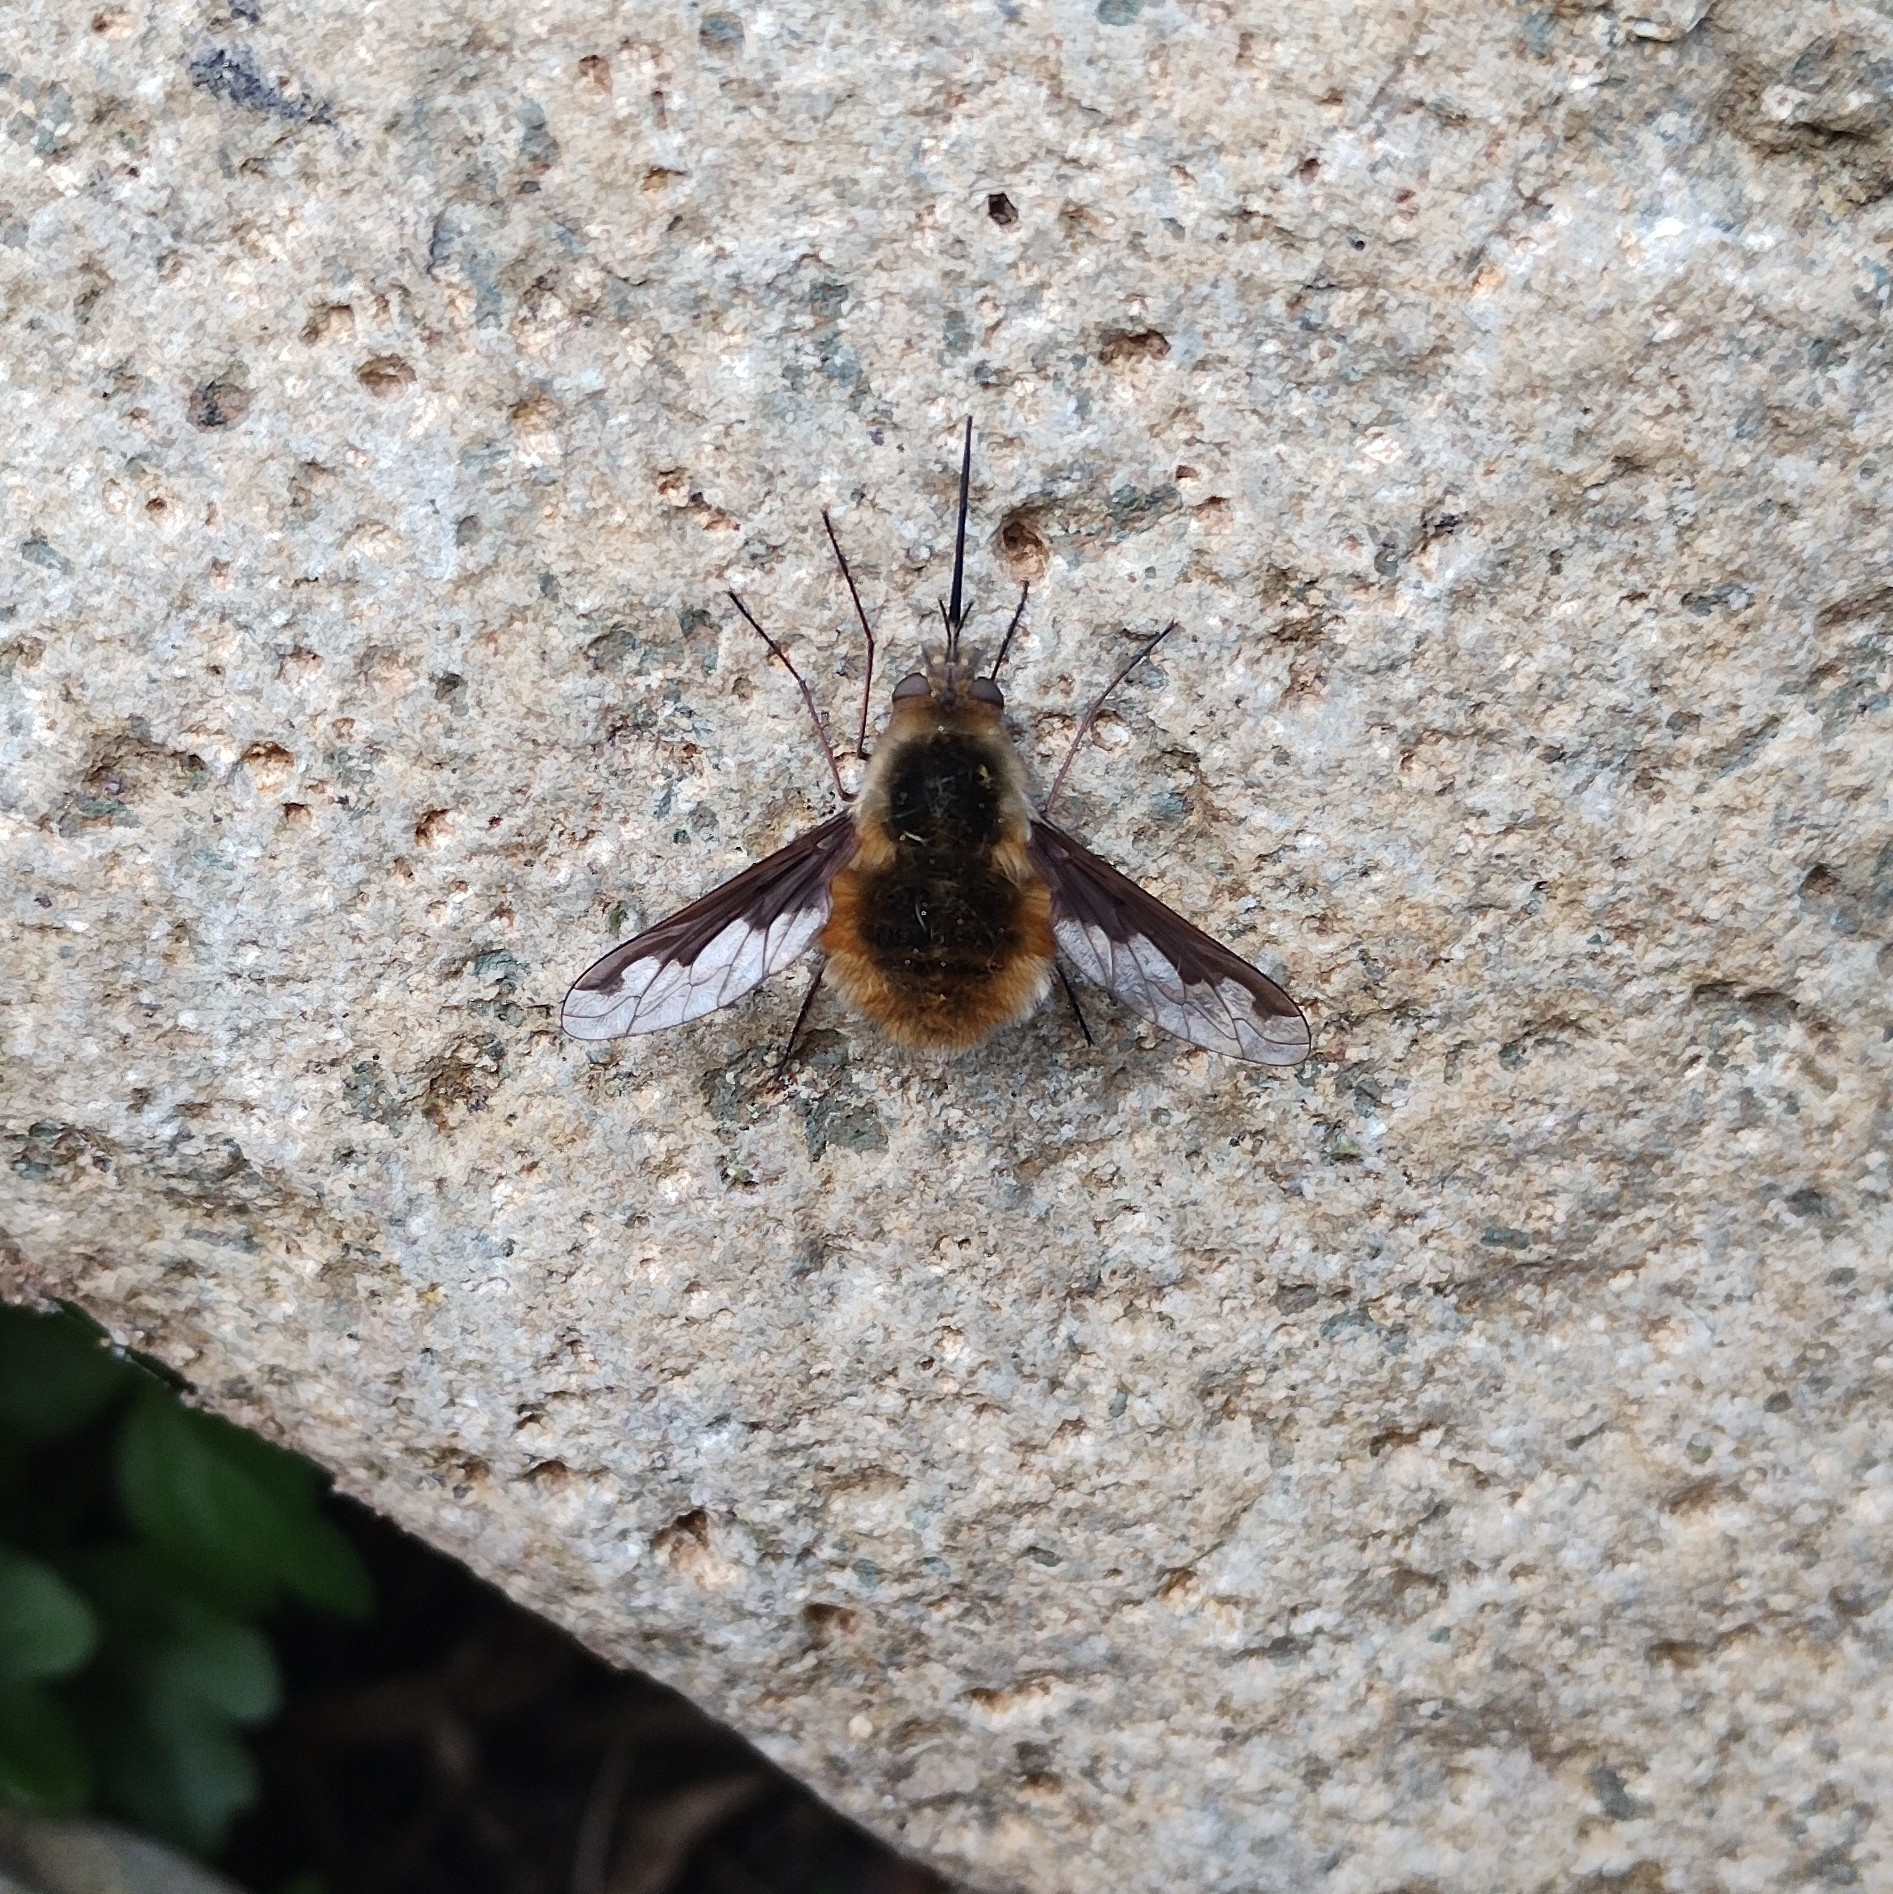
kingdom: Animalia
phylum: Arthropoda
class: Insecta
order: Diptera
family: Bombyliidae
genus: Bombylius
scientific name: Bombylius major
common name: Bee fly
